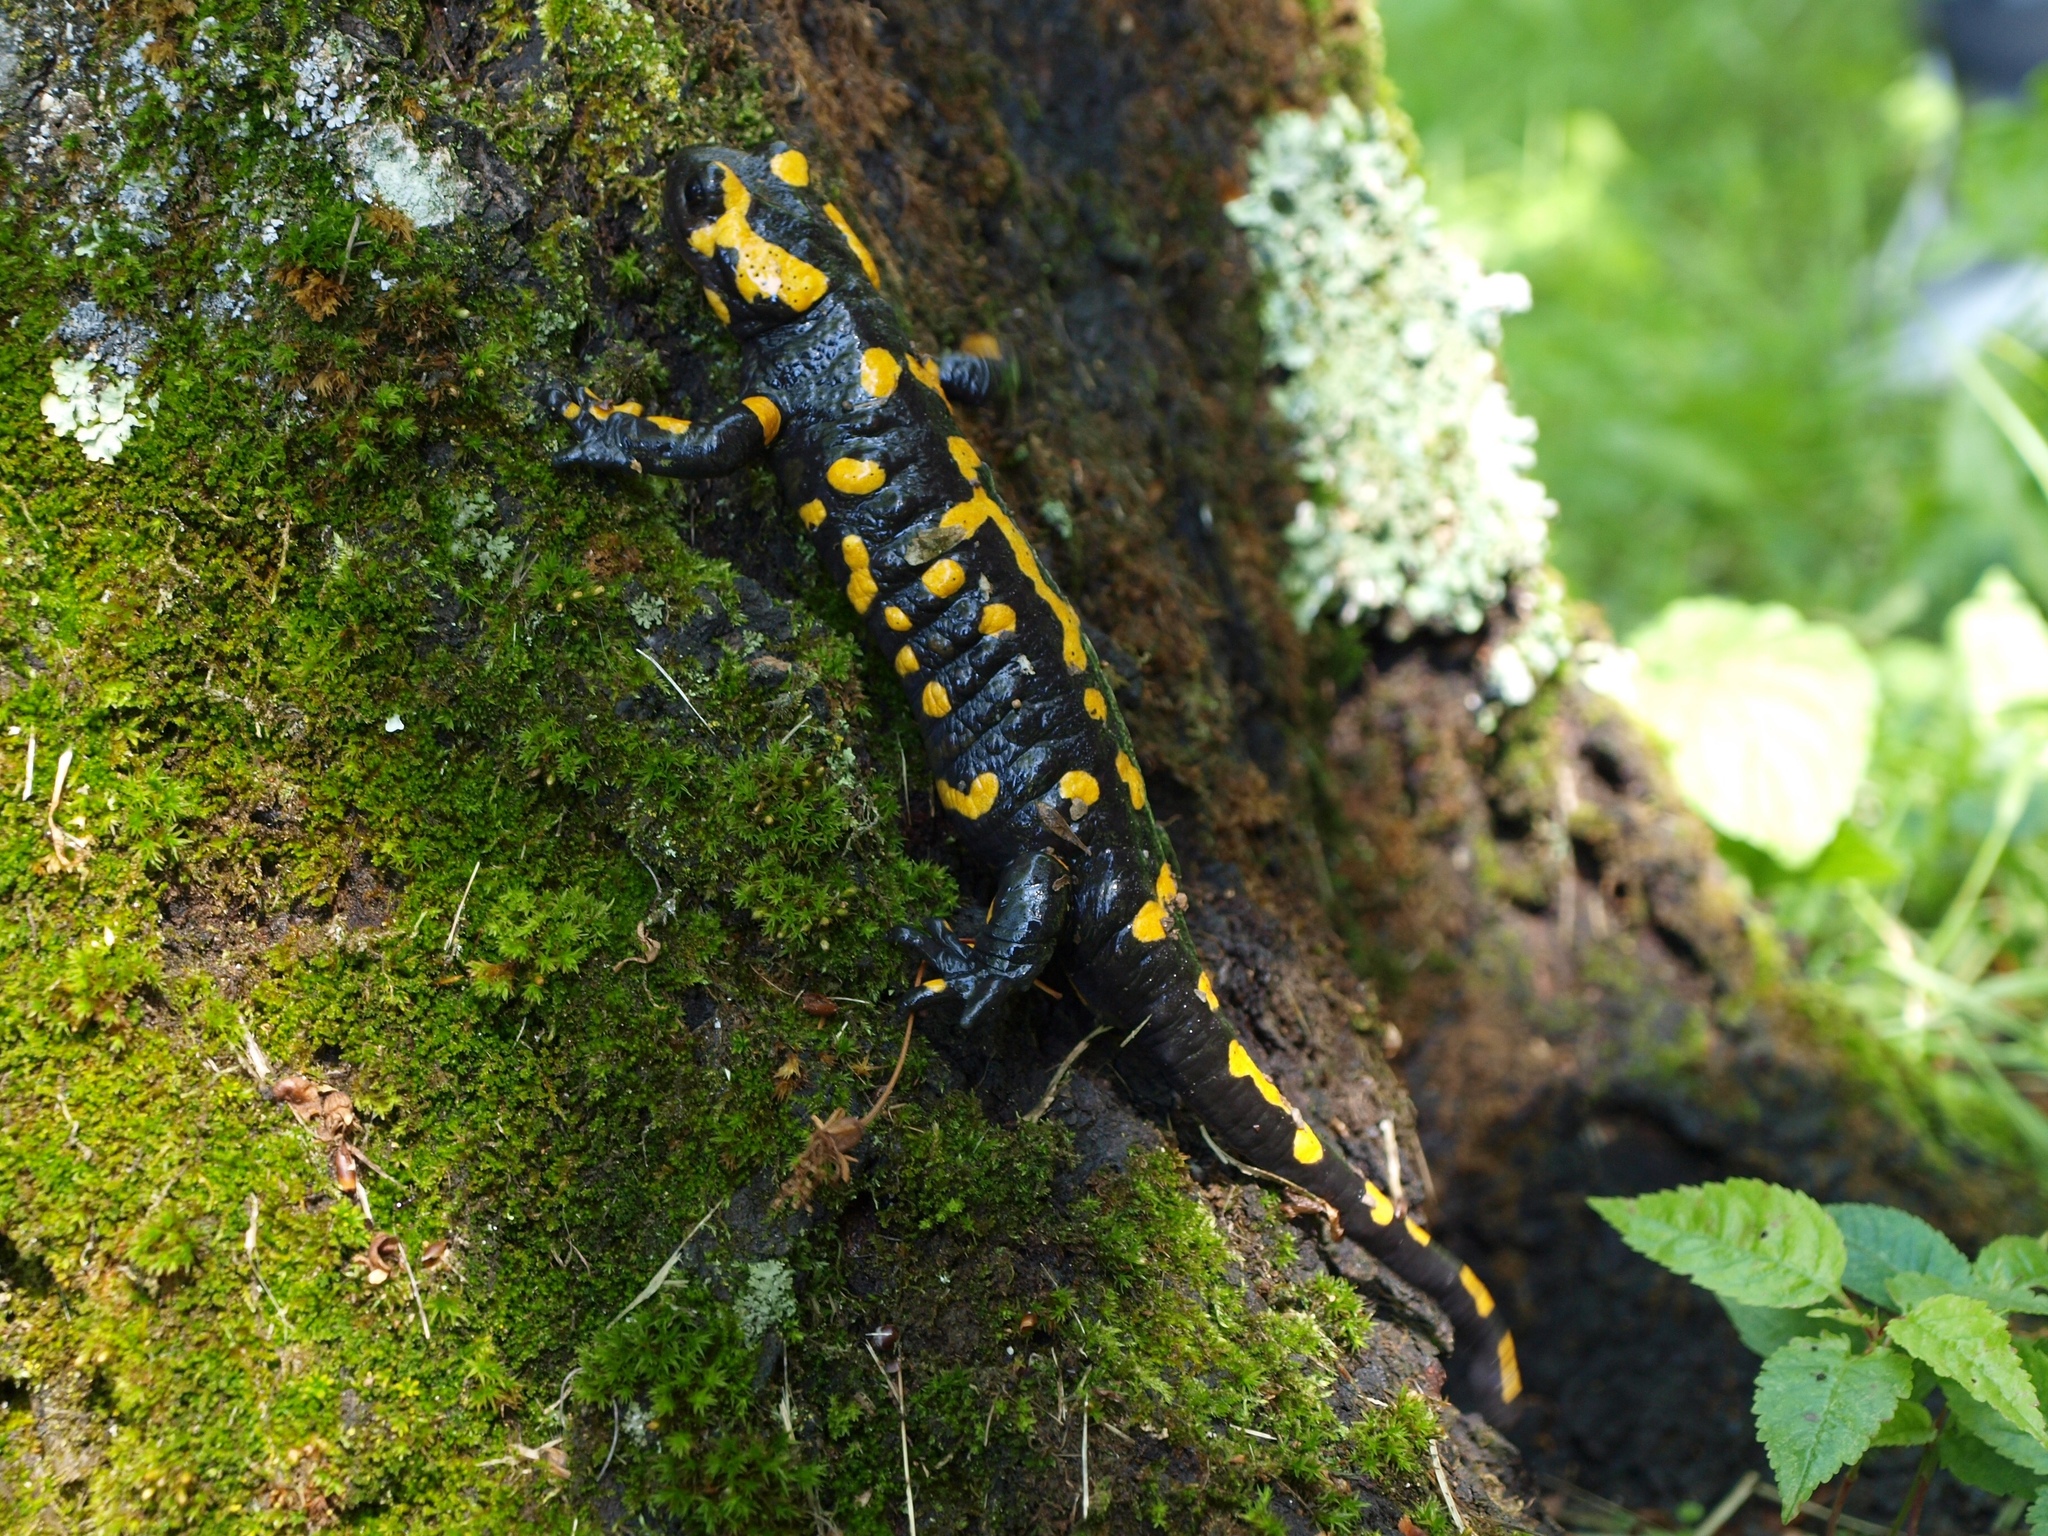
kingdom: Animalia
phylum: Chordata
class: Amphibia
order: Caudata
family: Salamandridae
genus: Salamandra
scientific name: Salamandra salamandra
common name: Fire salamander
